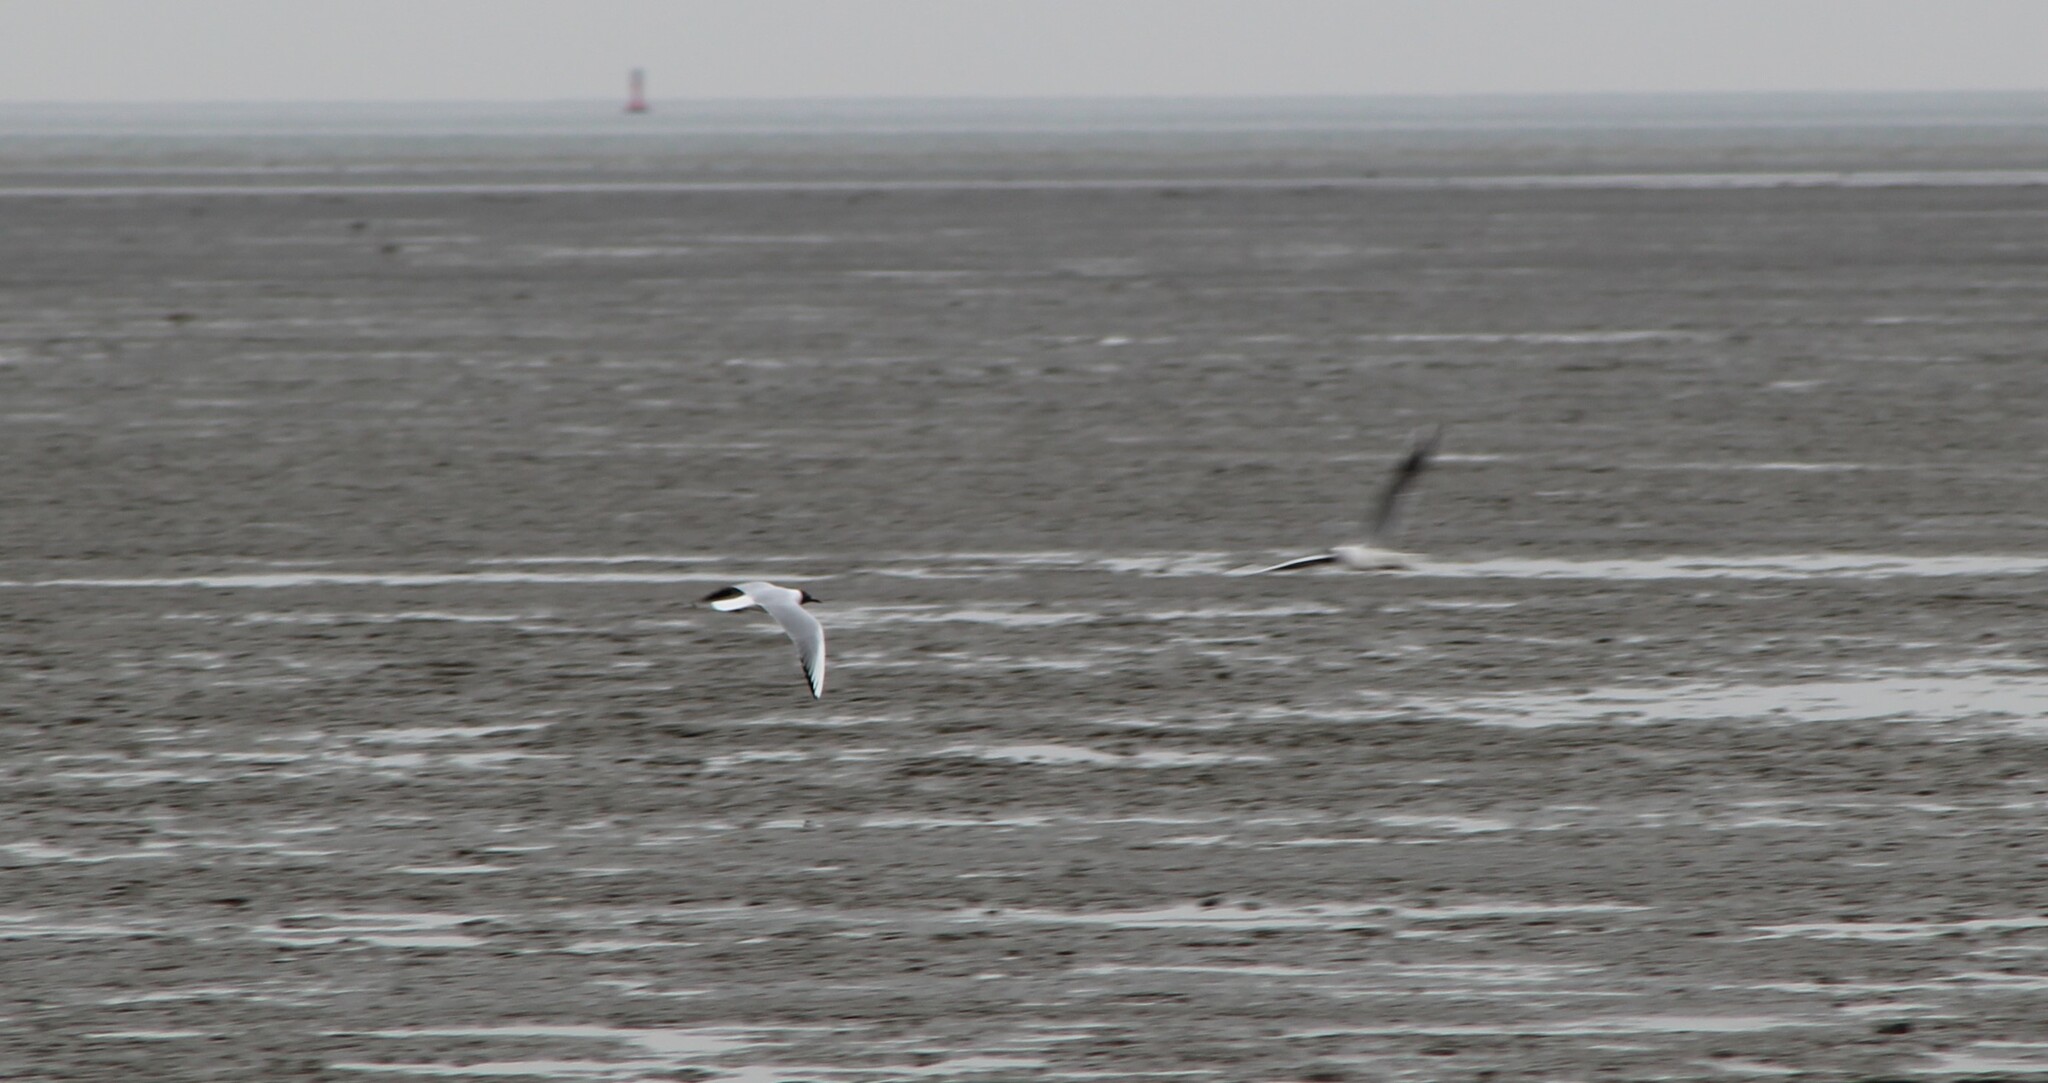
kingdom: Animalia
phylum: Chordata
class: Aves
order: Charadriiformes
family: Laridae
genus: Chroicocephalus
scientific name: Chroicocephalus ridibundus
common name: Black-headed gull
